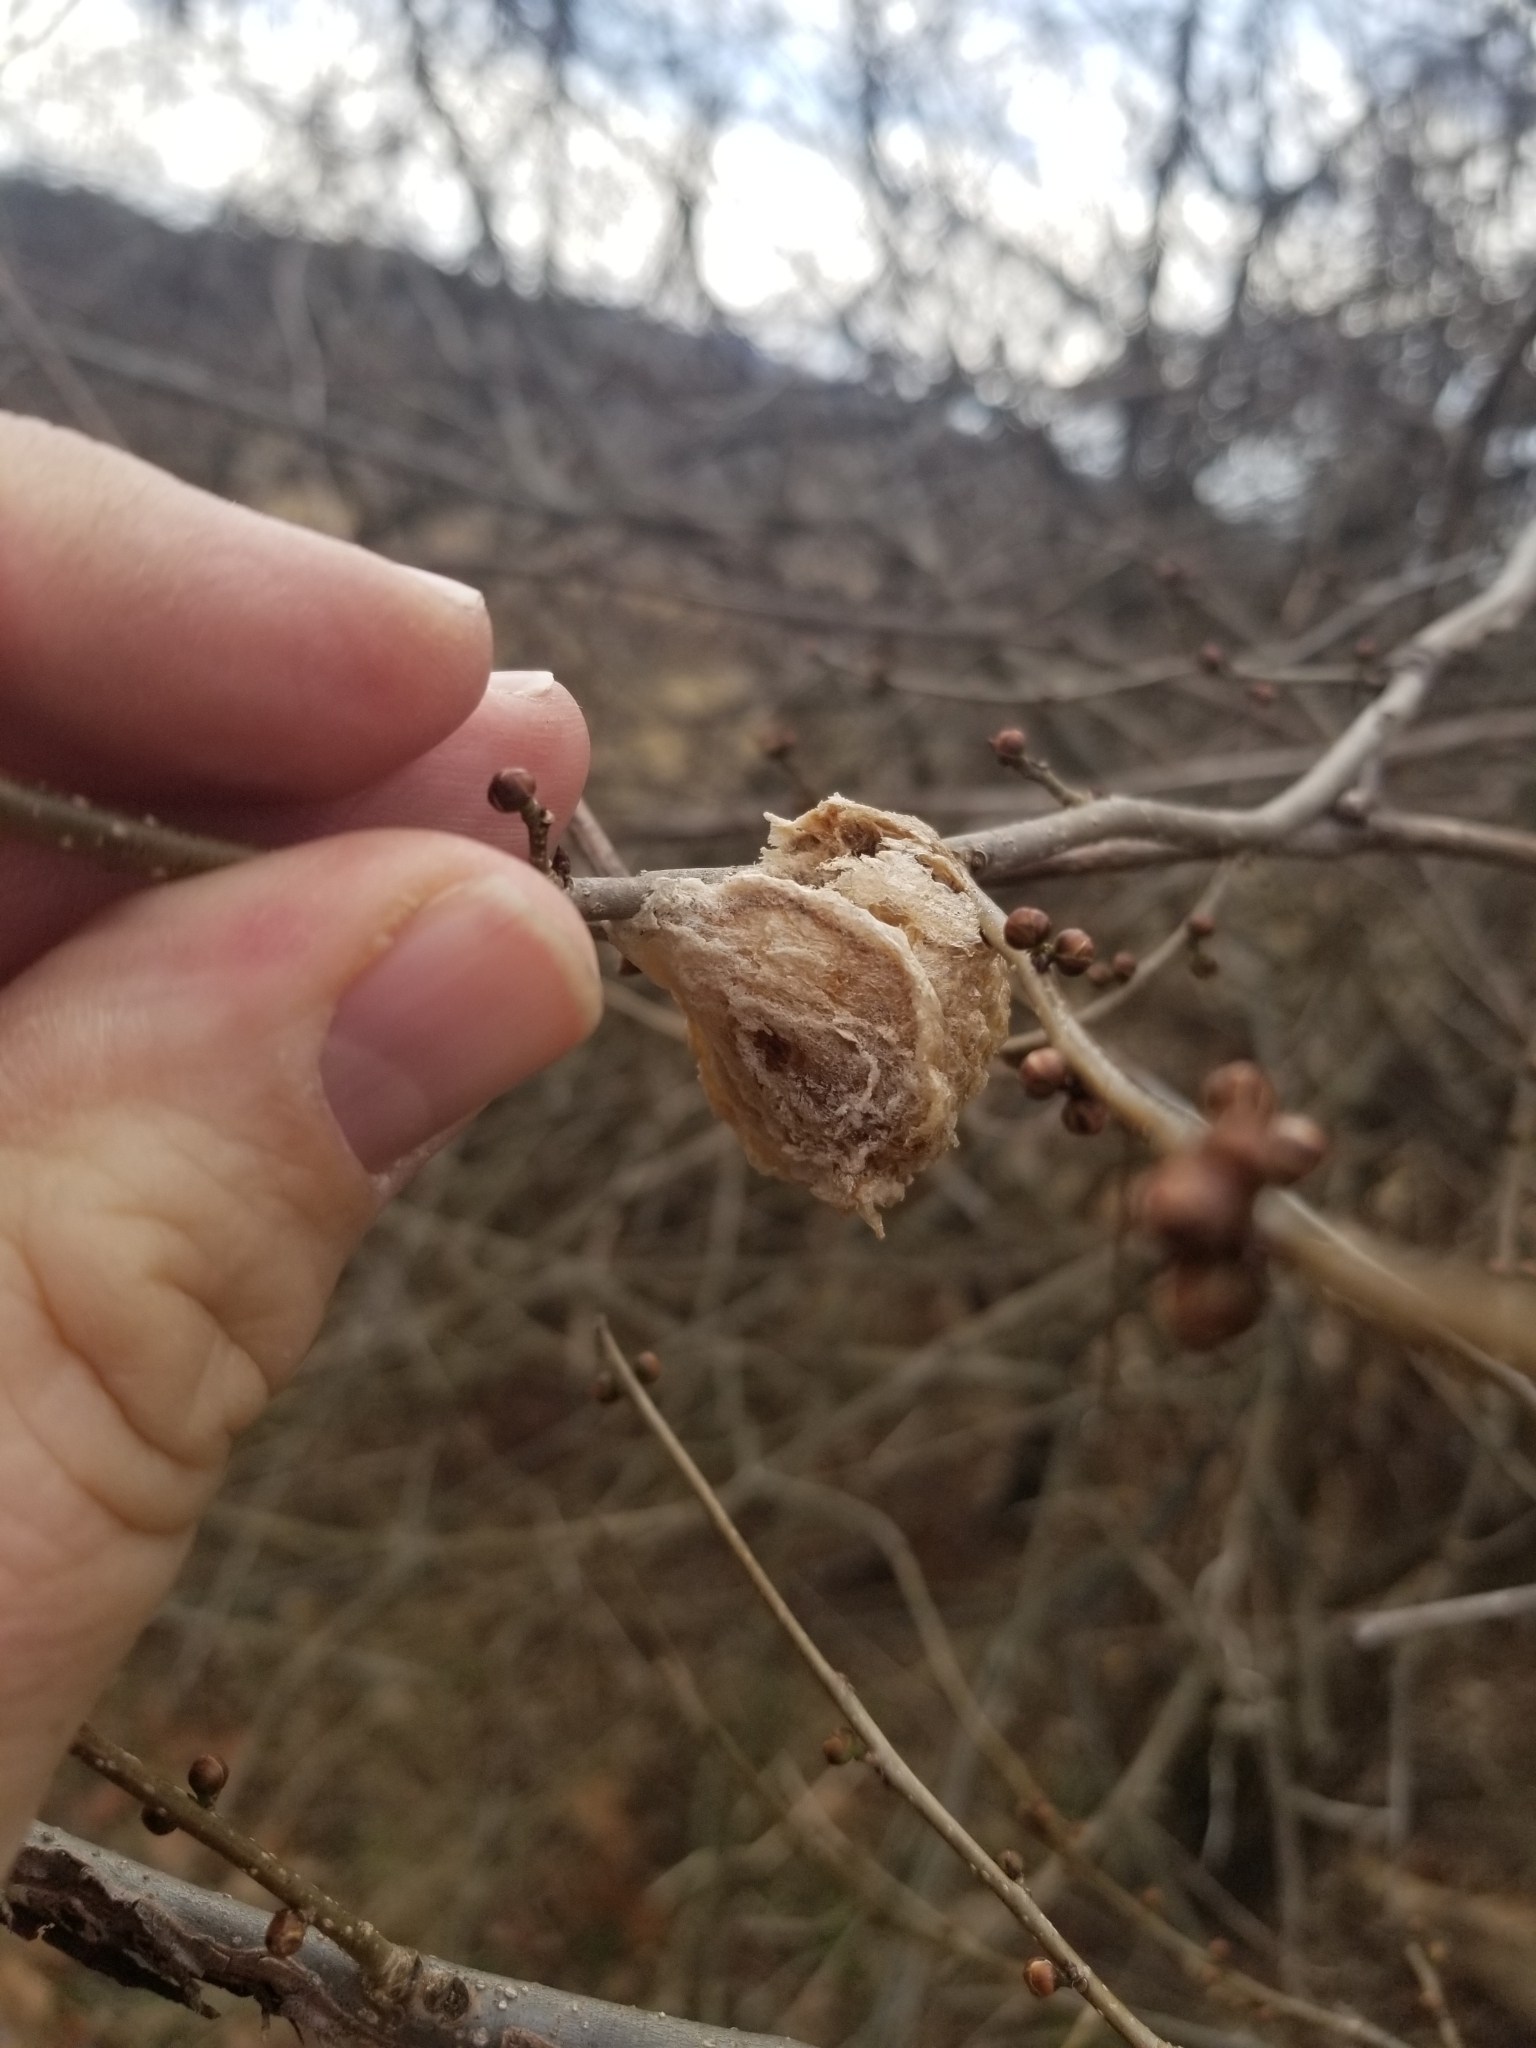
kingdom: Animalia
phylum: Arthropoda
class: Insecta
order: Mantodea
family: Mantidae
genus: Tenodera
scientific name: Tenodera sinensis
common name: Chinese mantis
